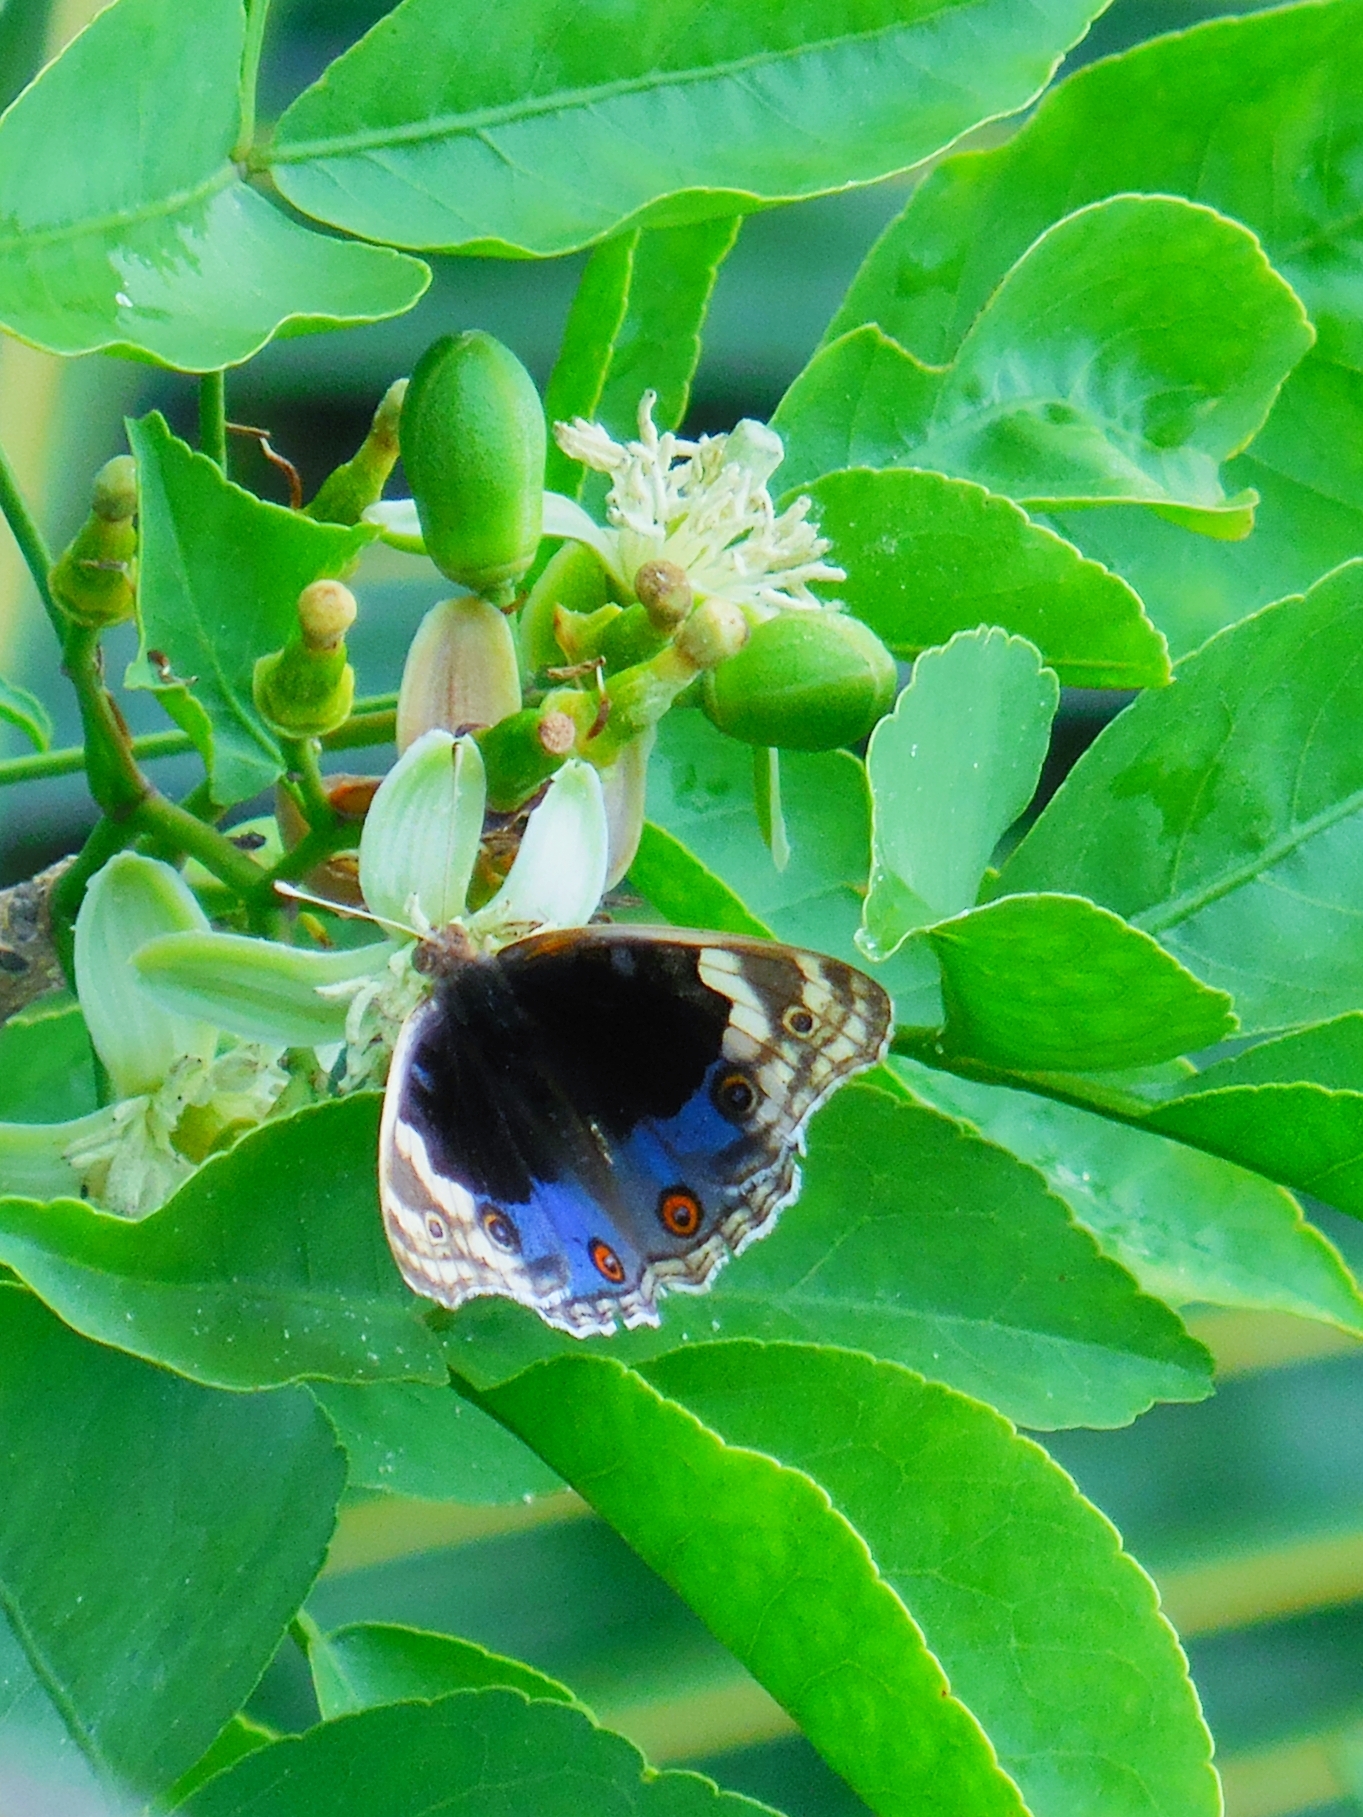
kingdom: Animalia
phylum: Arthropoda
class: Insecta
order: Lepidoptera
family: Nymphalidae
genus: Junonia
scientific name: Junonia orithya
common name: Blue pansy
